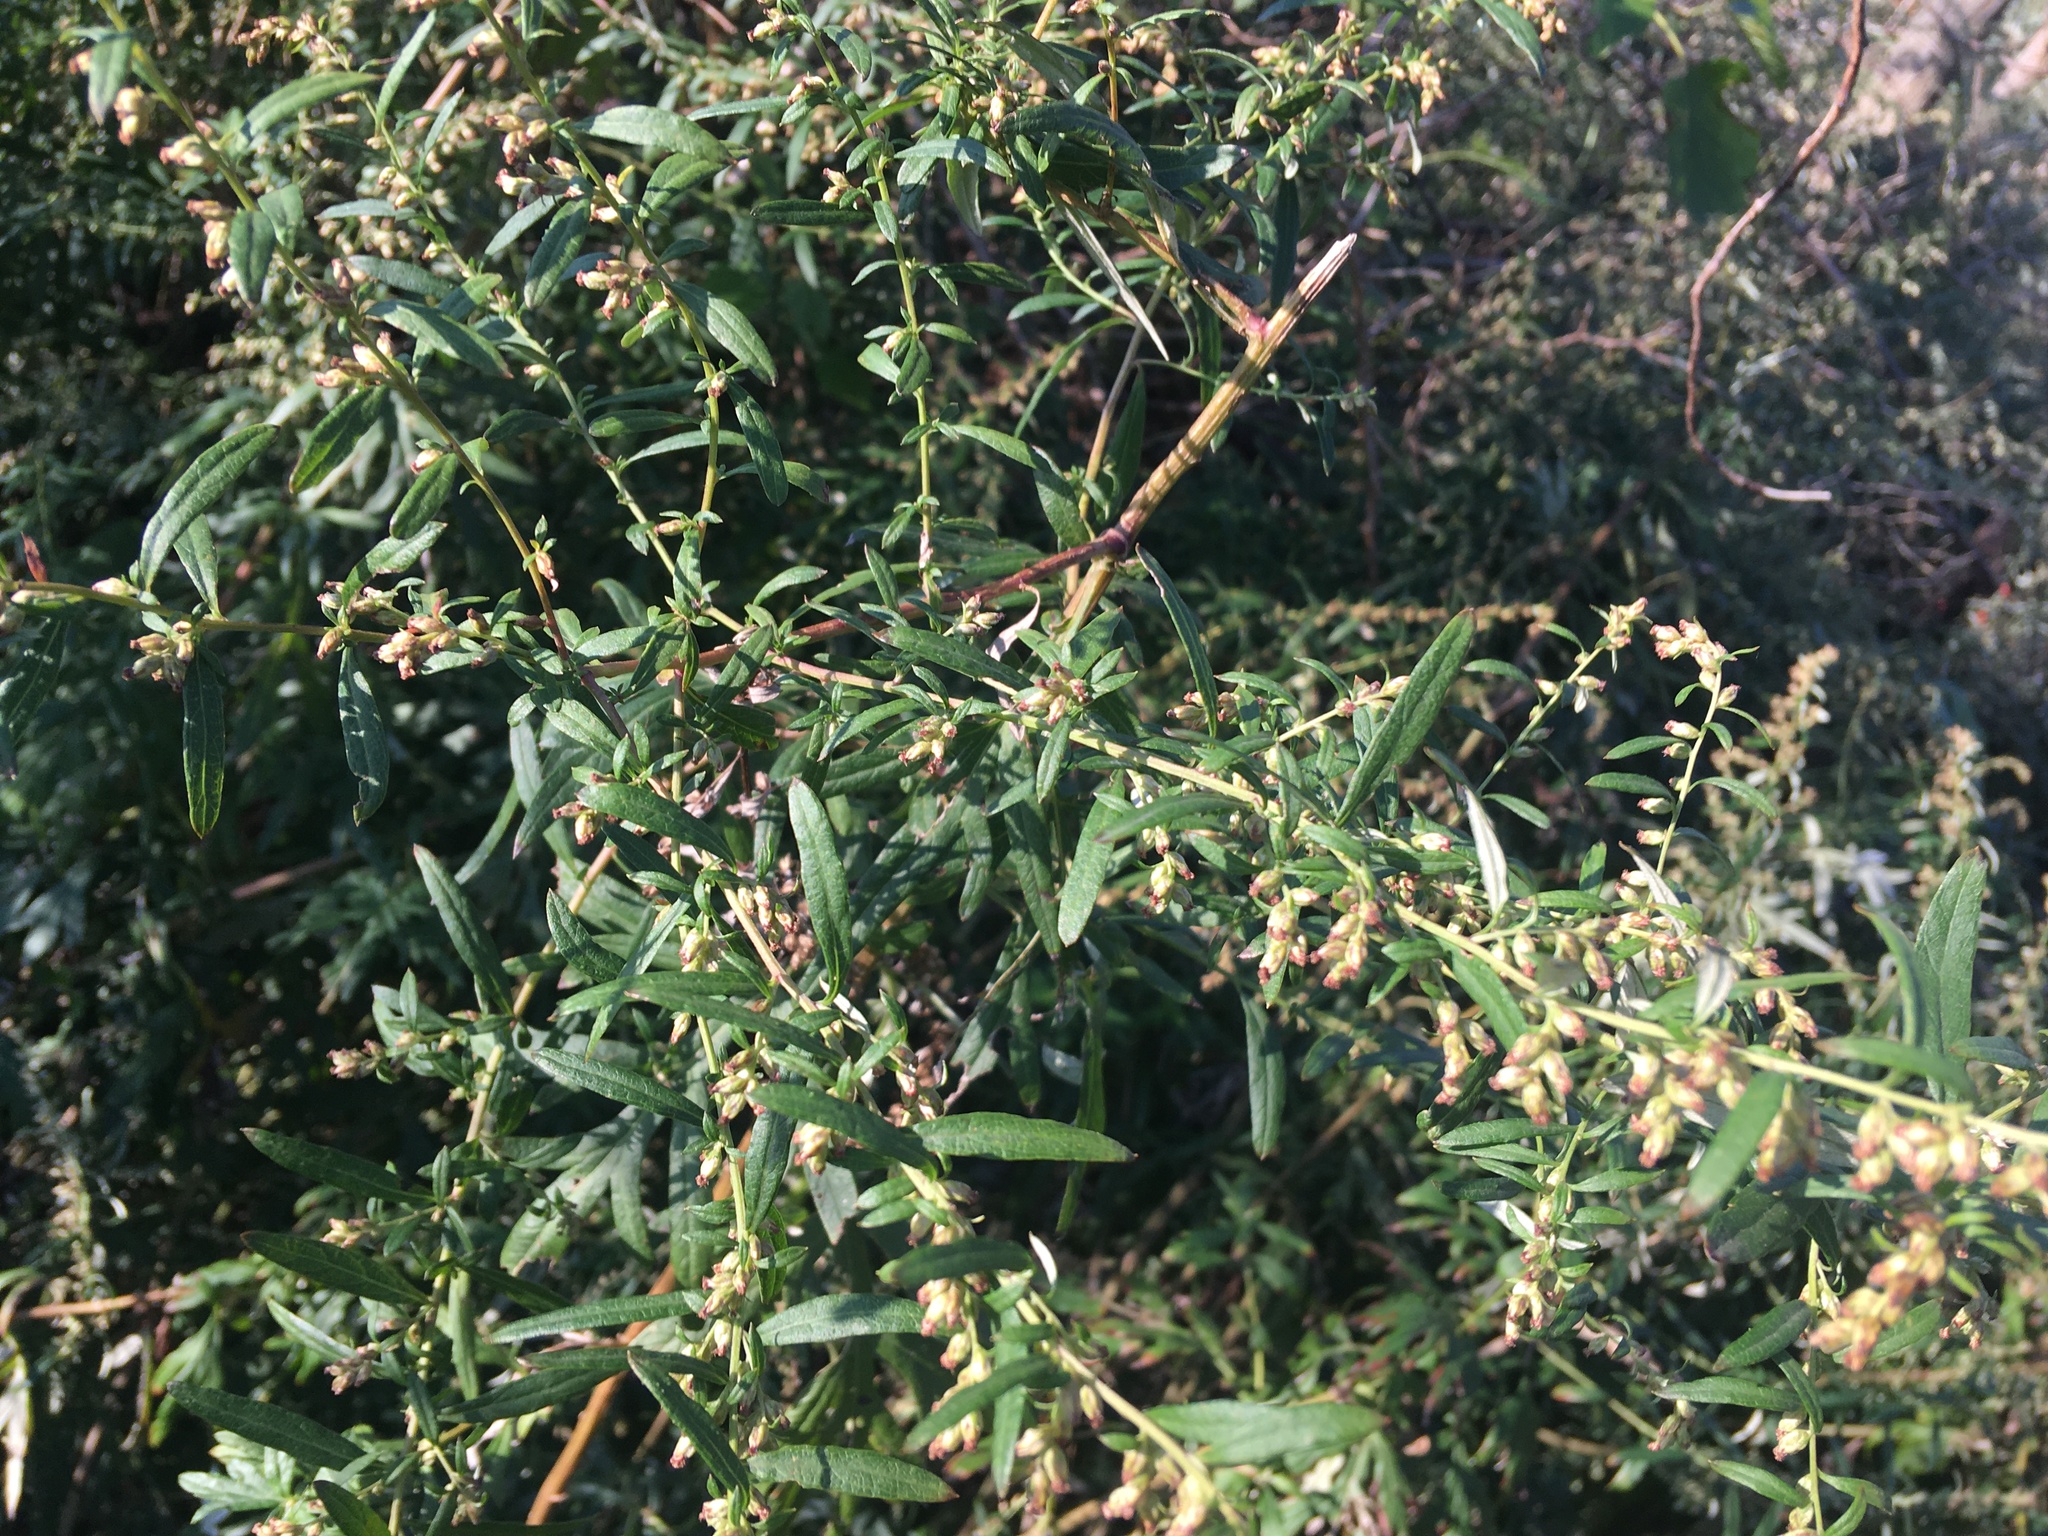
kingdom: Plantae
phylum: Tracheophyta
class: Magnoliopsida
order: Asterales
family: Asteraceae
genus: Artemisia
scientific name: Artemisia vulgaris
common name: Mugwort
